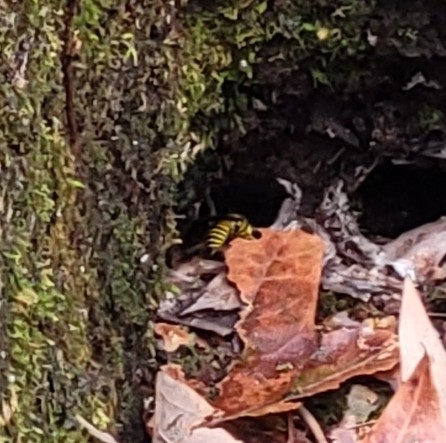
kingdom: Animalia
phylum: Arthropoda
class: Insecta
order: Hymenoptera
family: Vespidae
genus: Vespula
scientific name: Vespula squamosa
